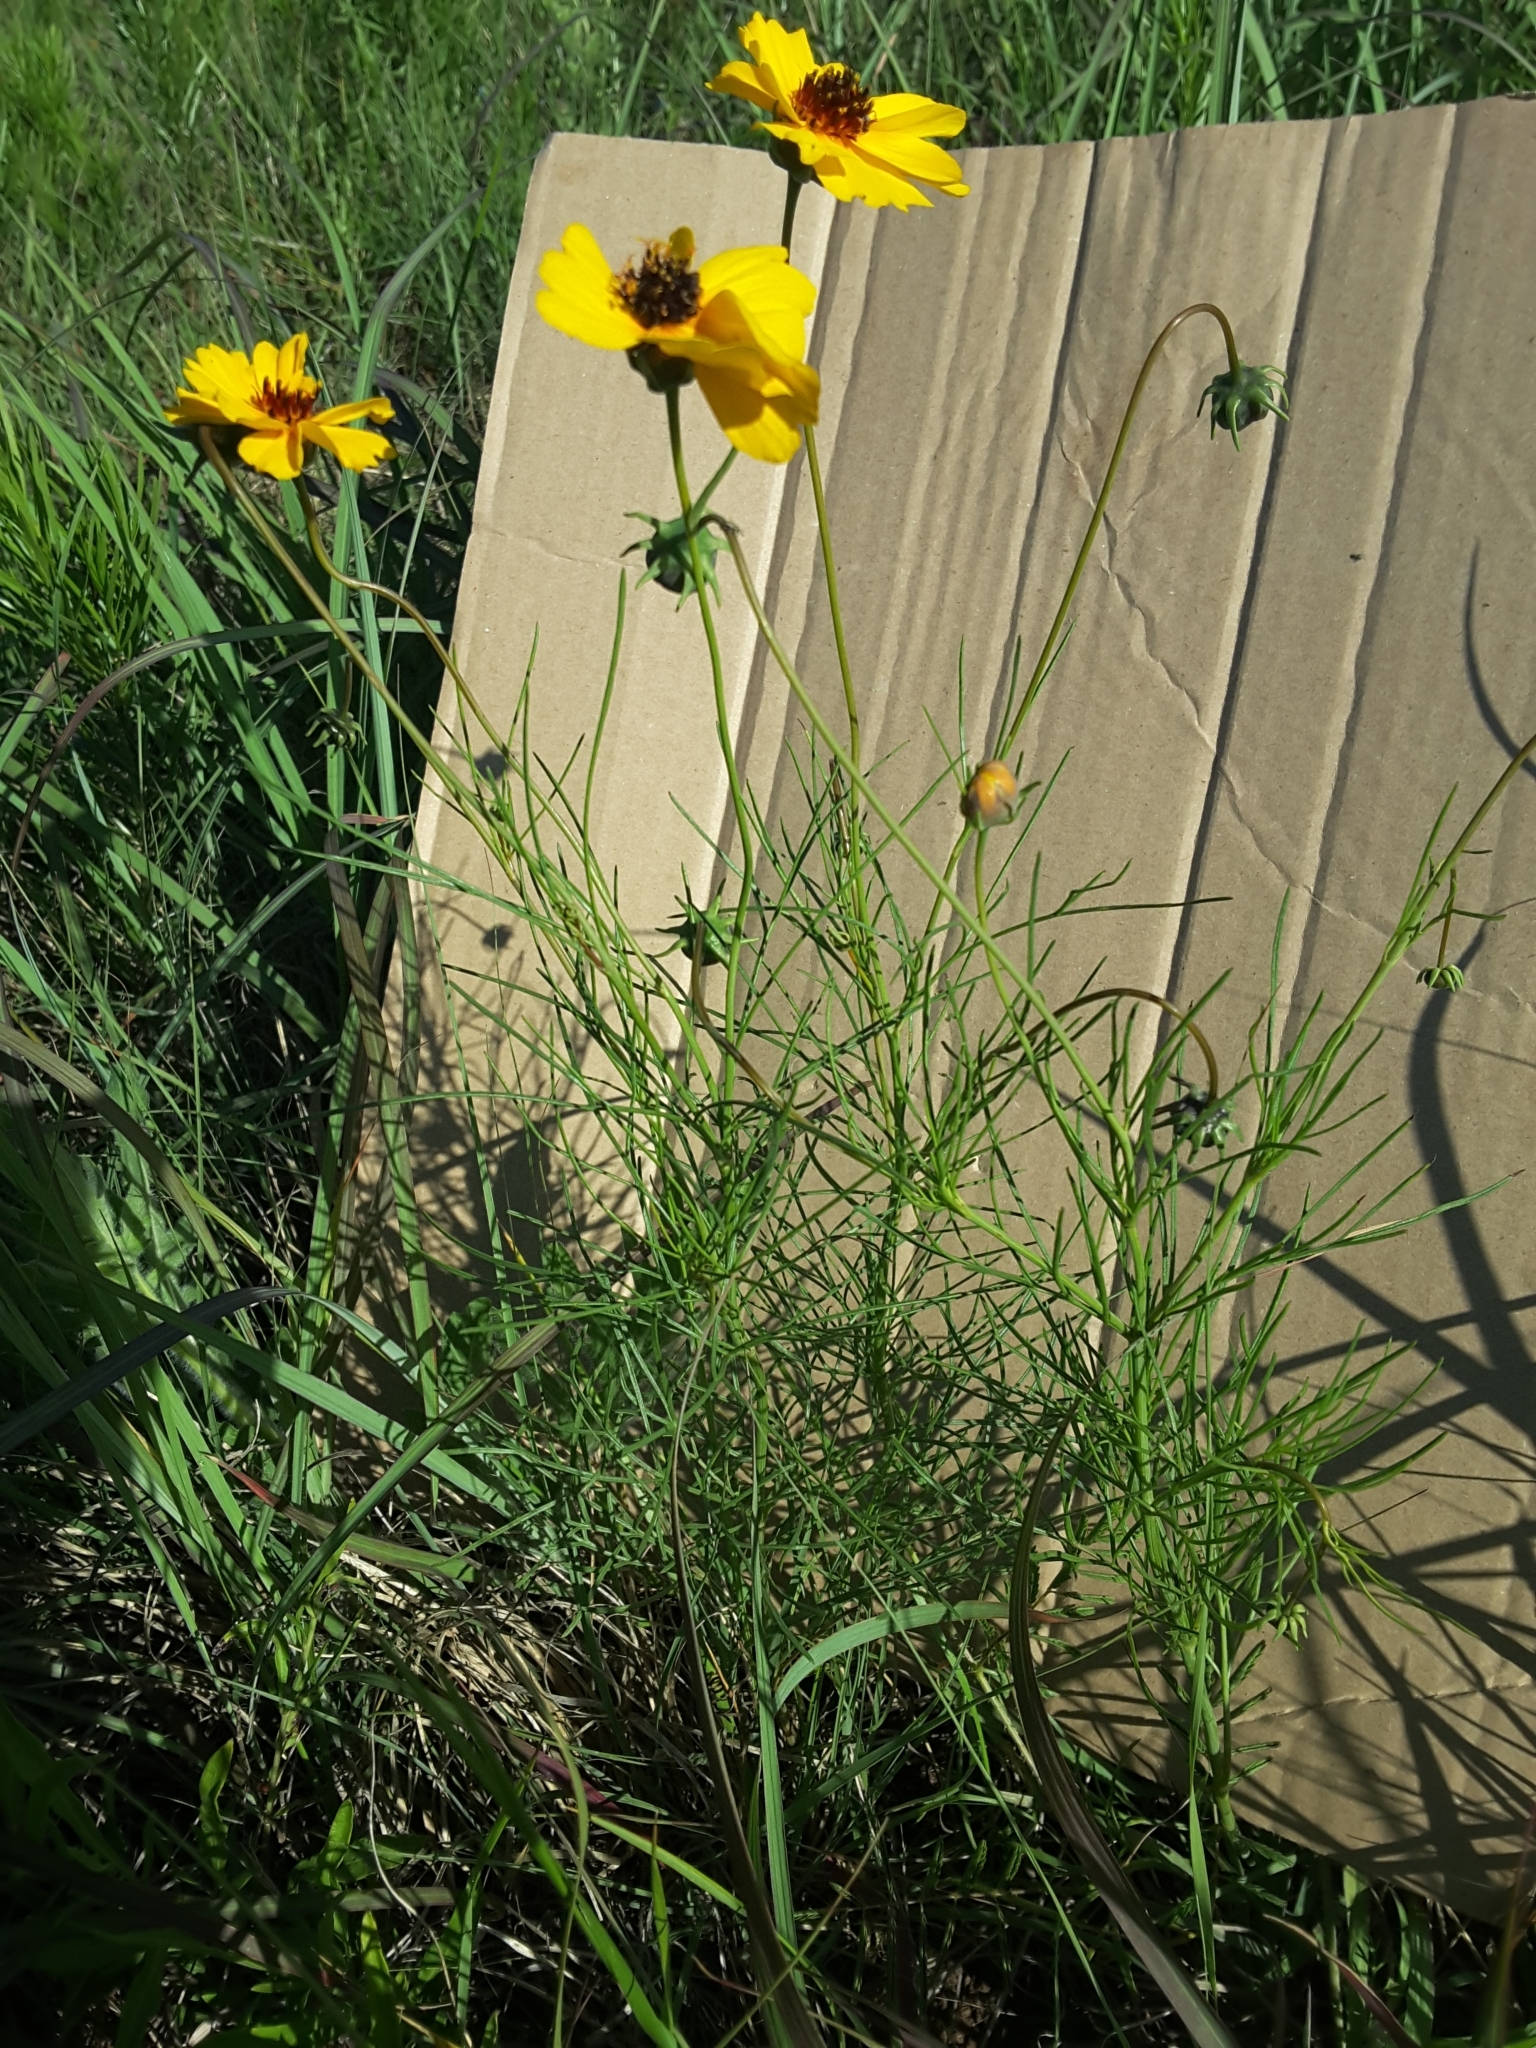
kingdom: Plantae
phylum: Tracheophyta
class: Magnoliopsida
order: Asterales
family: Asteraceae
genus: Thelesperma
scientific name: Thelesperma filifolium
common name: Stiff greenthread
